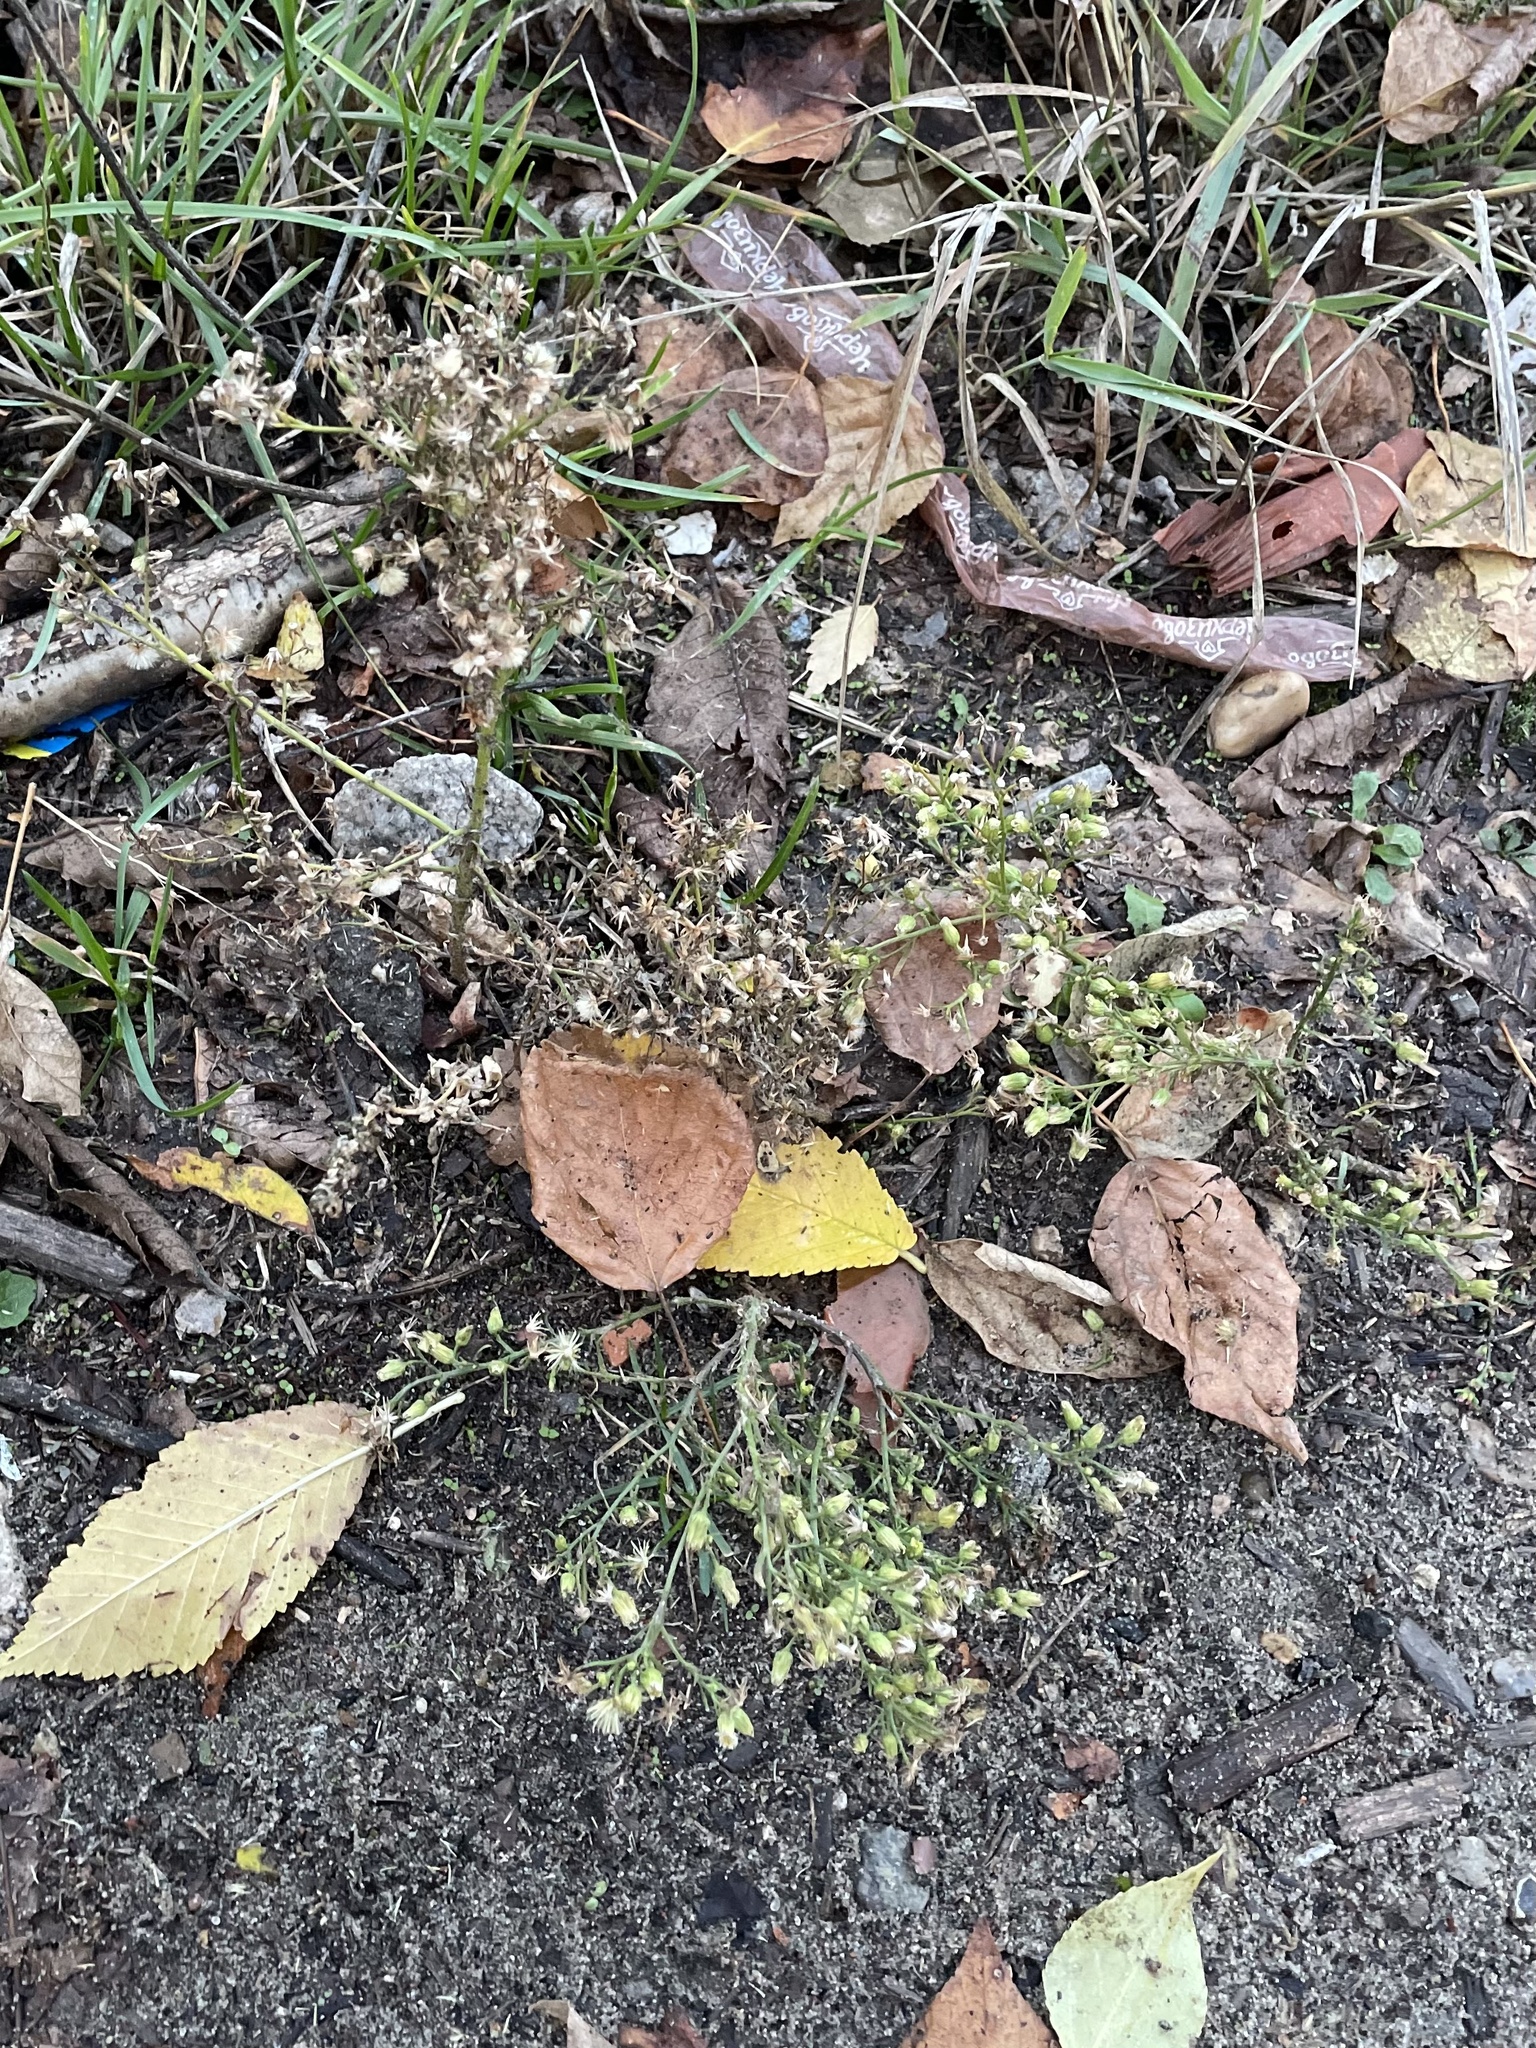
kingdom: Plantae
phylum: Tracheophyta
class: Magnoliopsida
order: Asterales
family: Asteraceae
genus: Erigeron
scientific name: Erigeron canadensis
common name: Canadian fleabane
